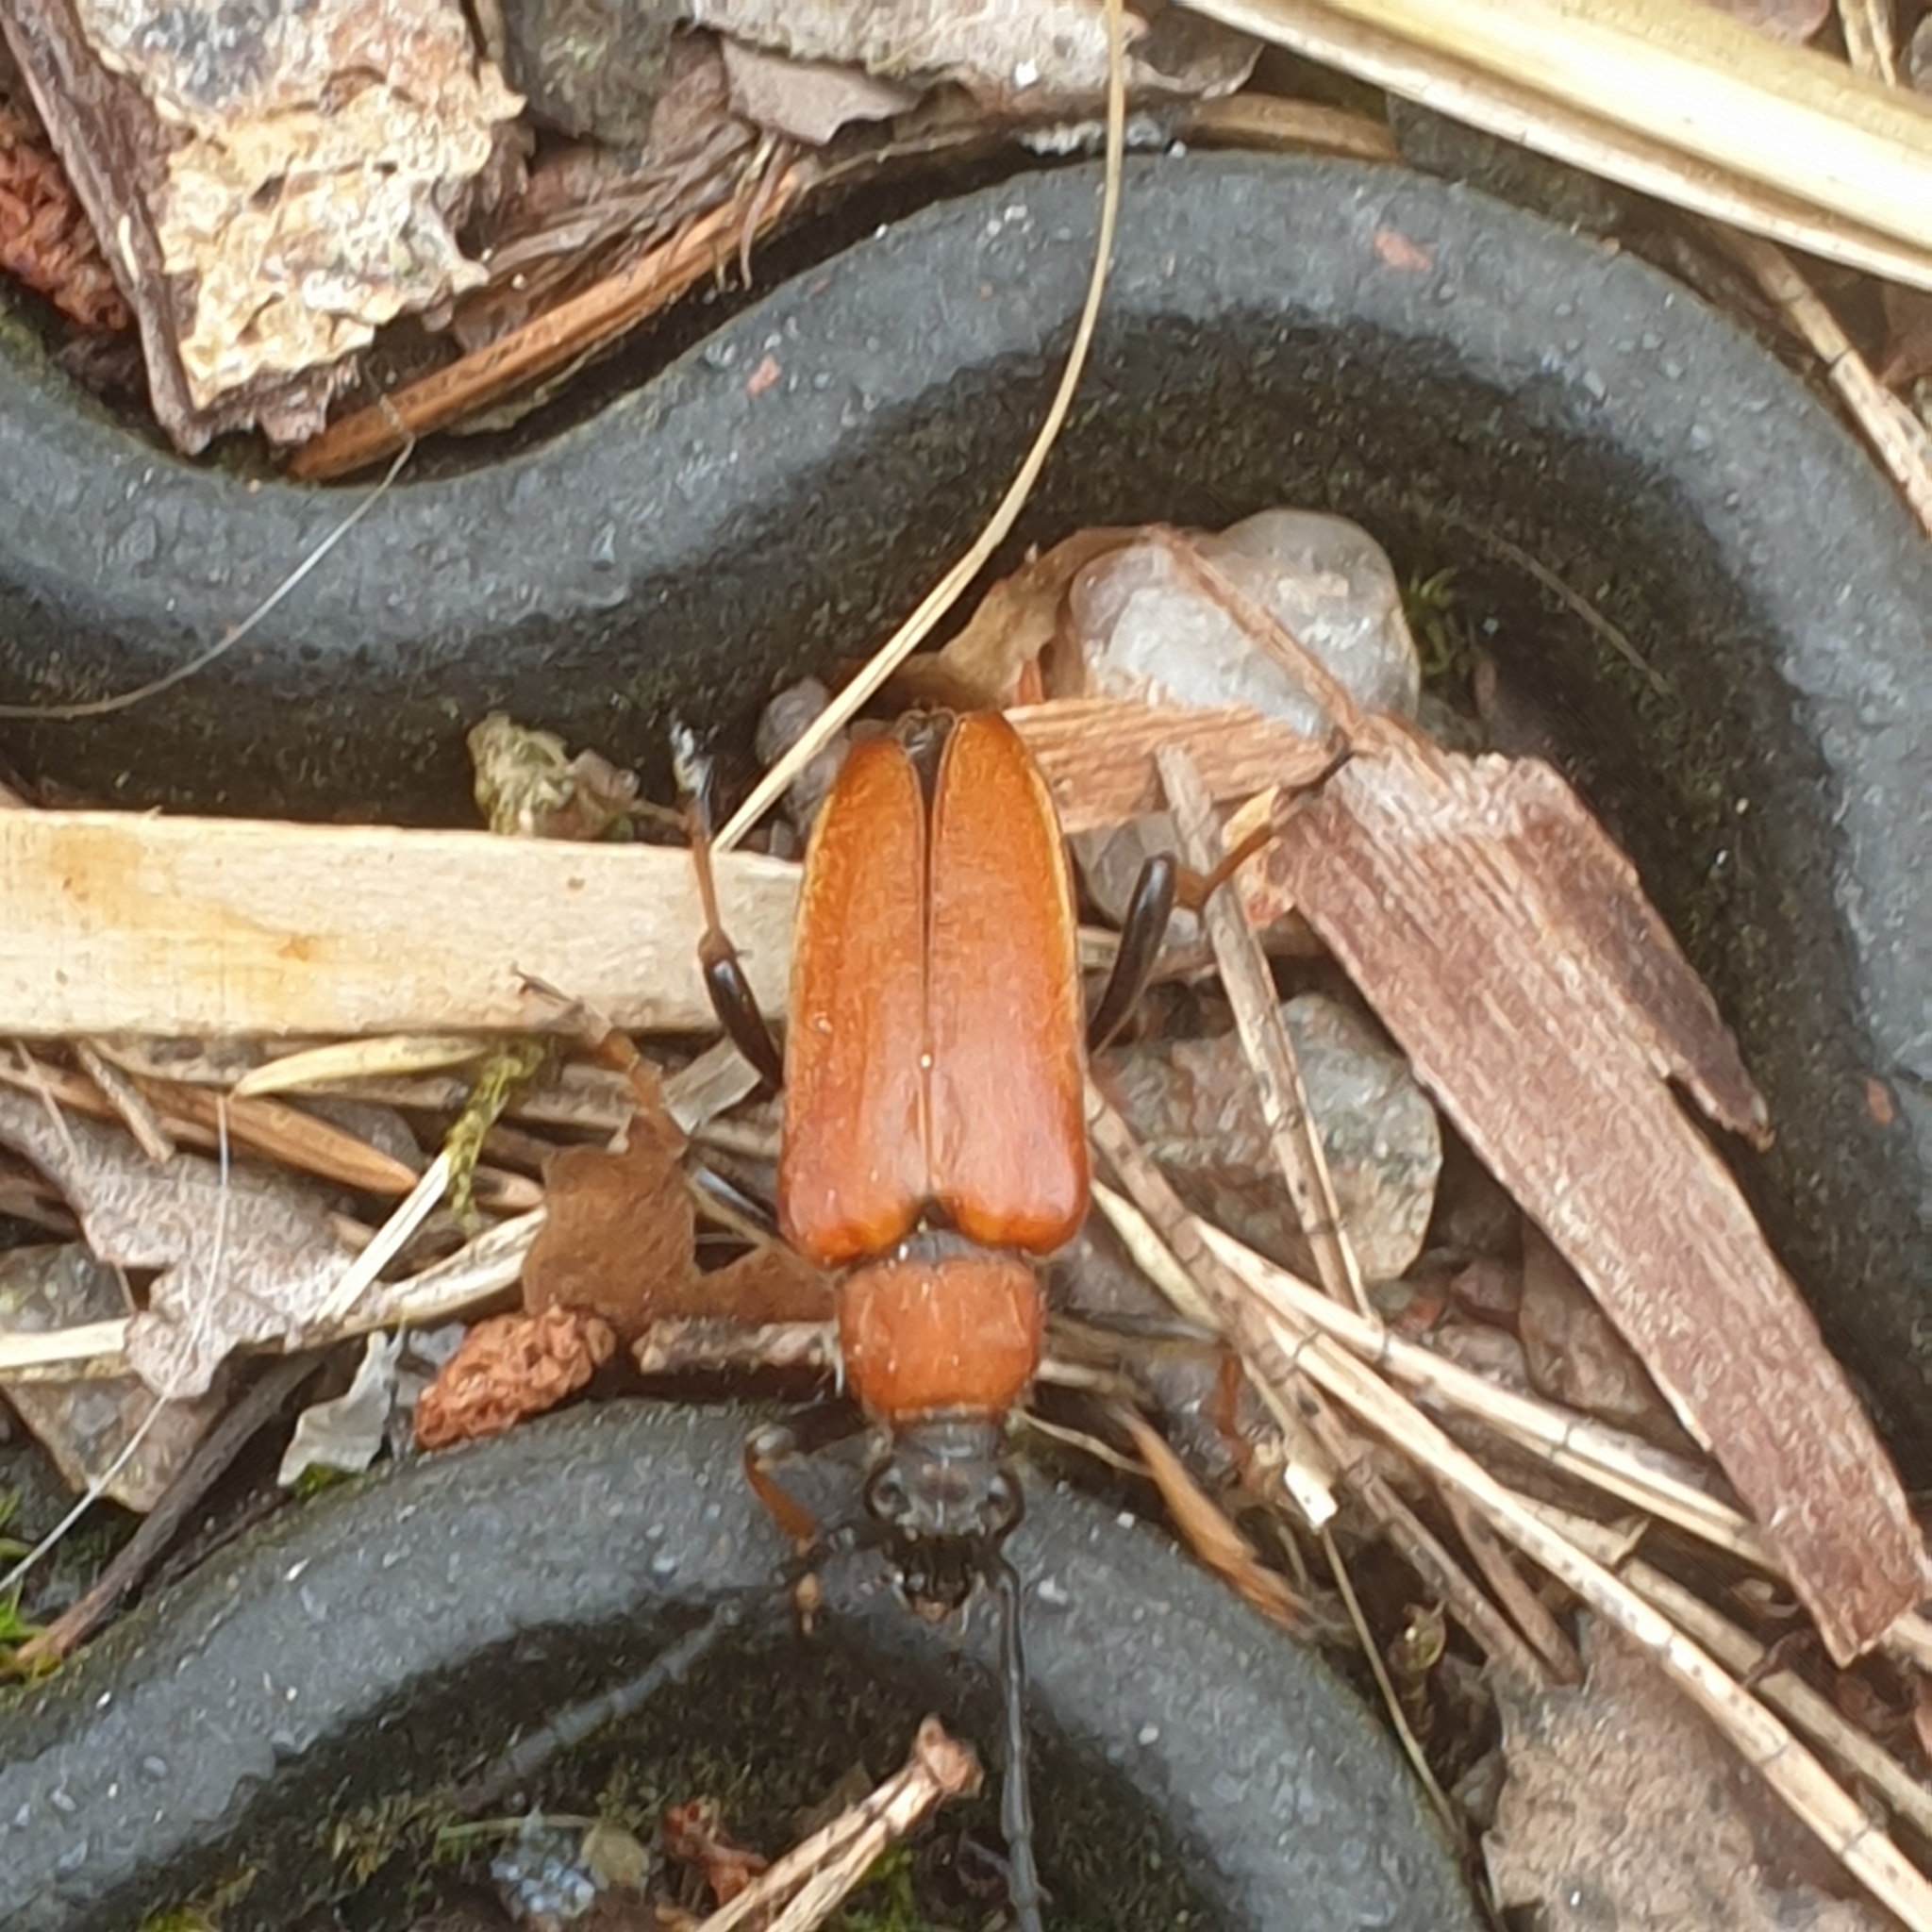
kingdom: Animalia
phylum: Arthropoda
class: Insecta
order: Coleoptera
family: Cerambycidae
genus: Stictoleptura
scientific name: Stictoleptura rubra
